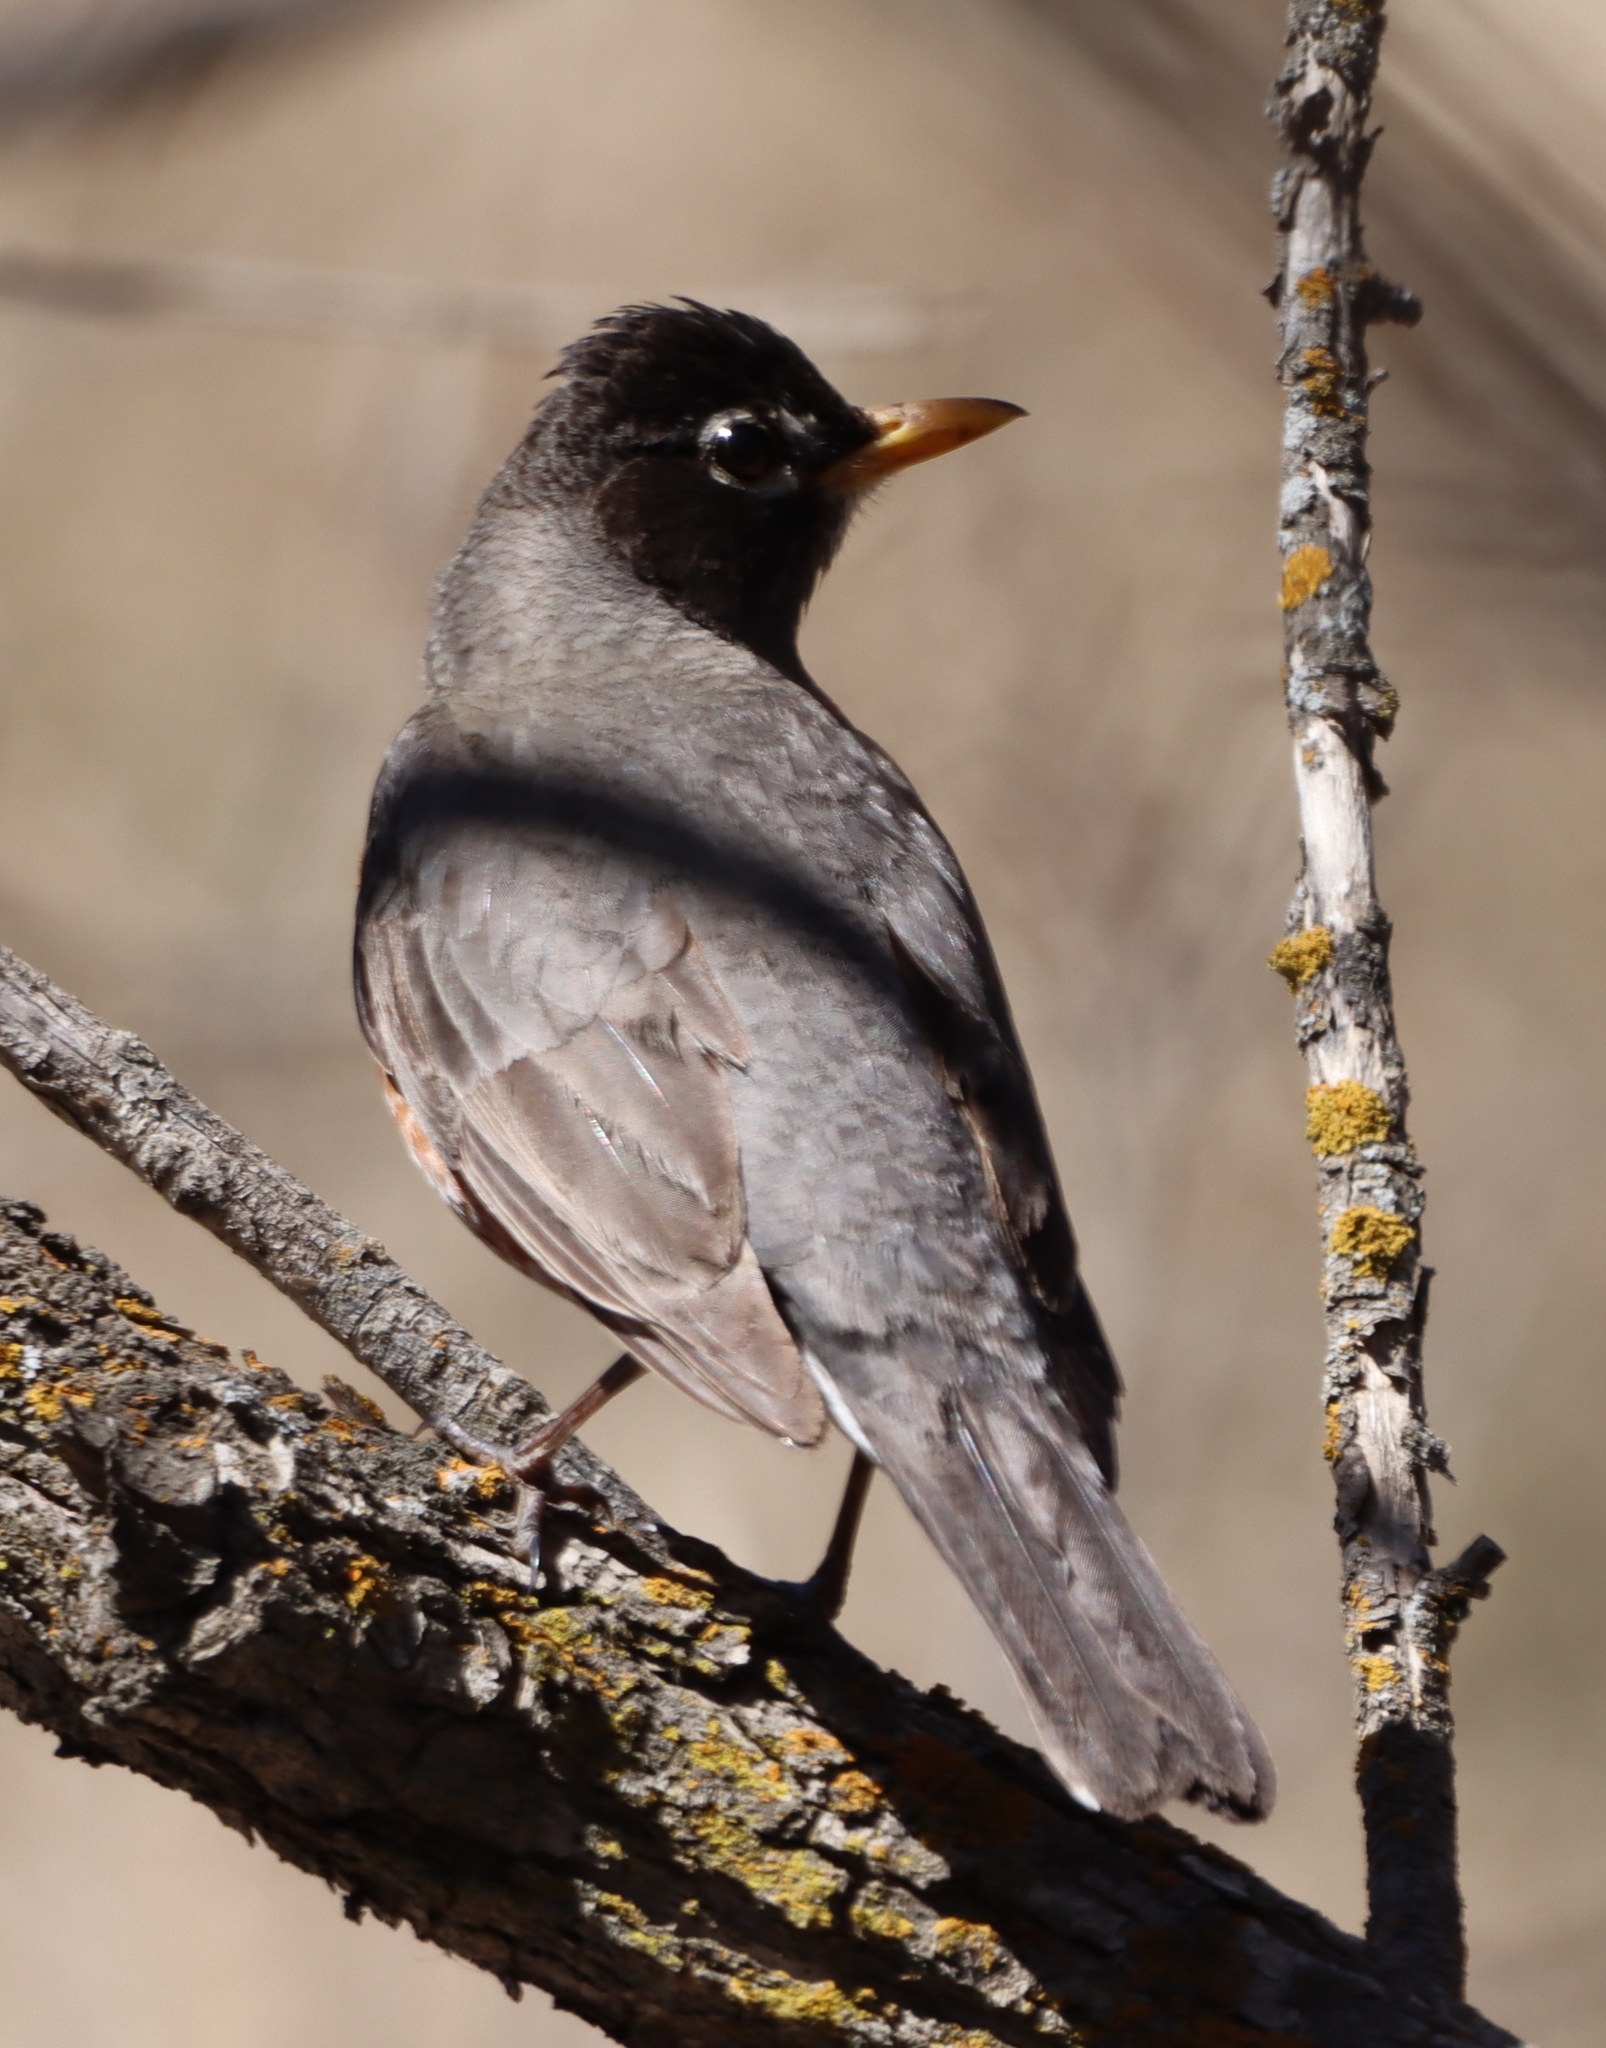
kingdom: Animalia
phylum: Chordata
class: Aves
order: Passeriformes
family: Turdidae
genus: Turdus
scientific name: Turdus migratorius
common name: American robin
